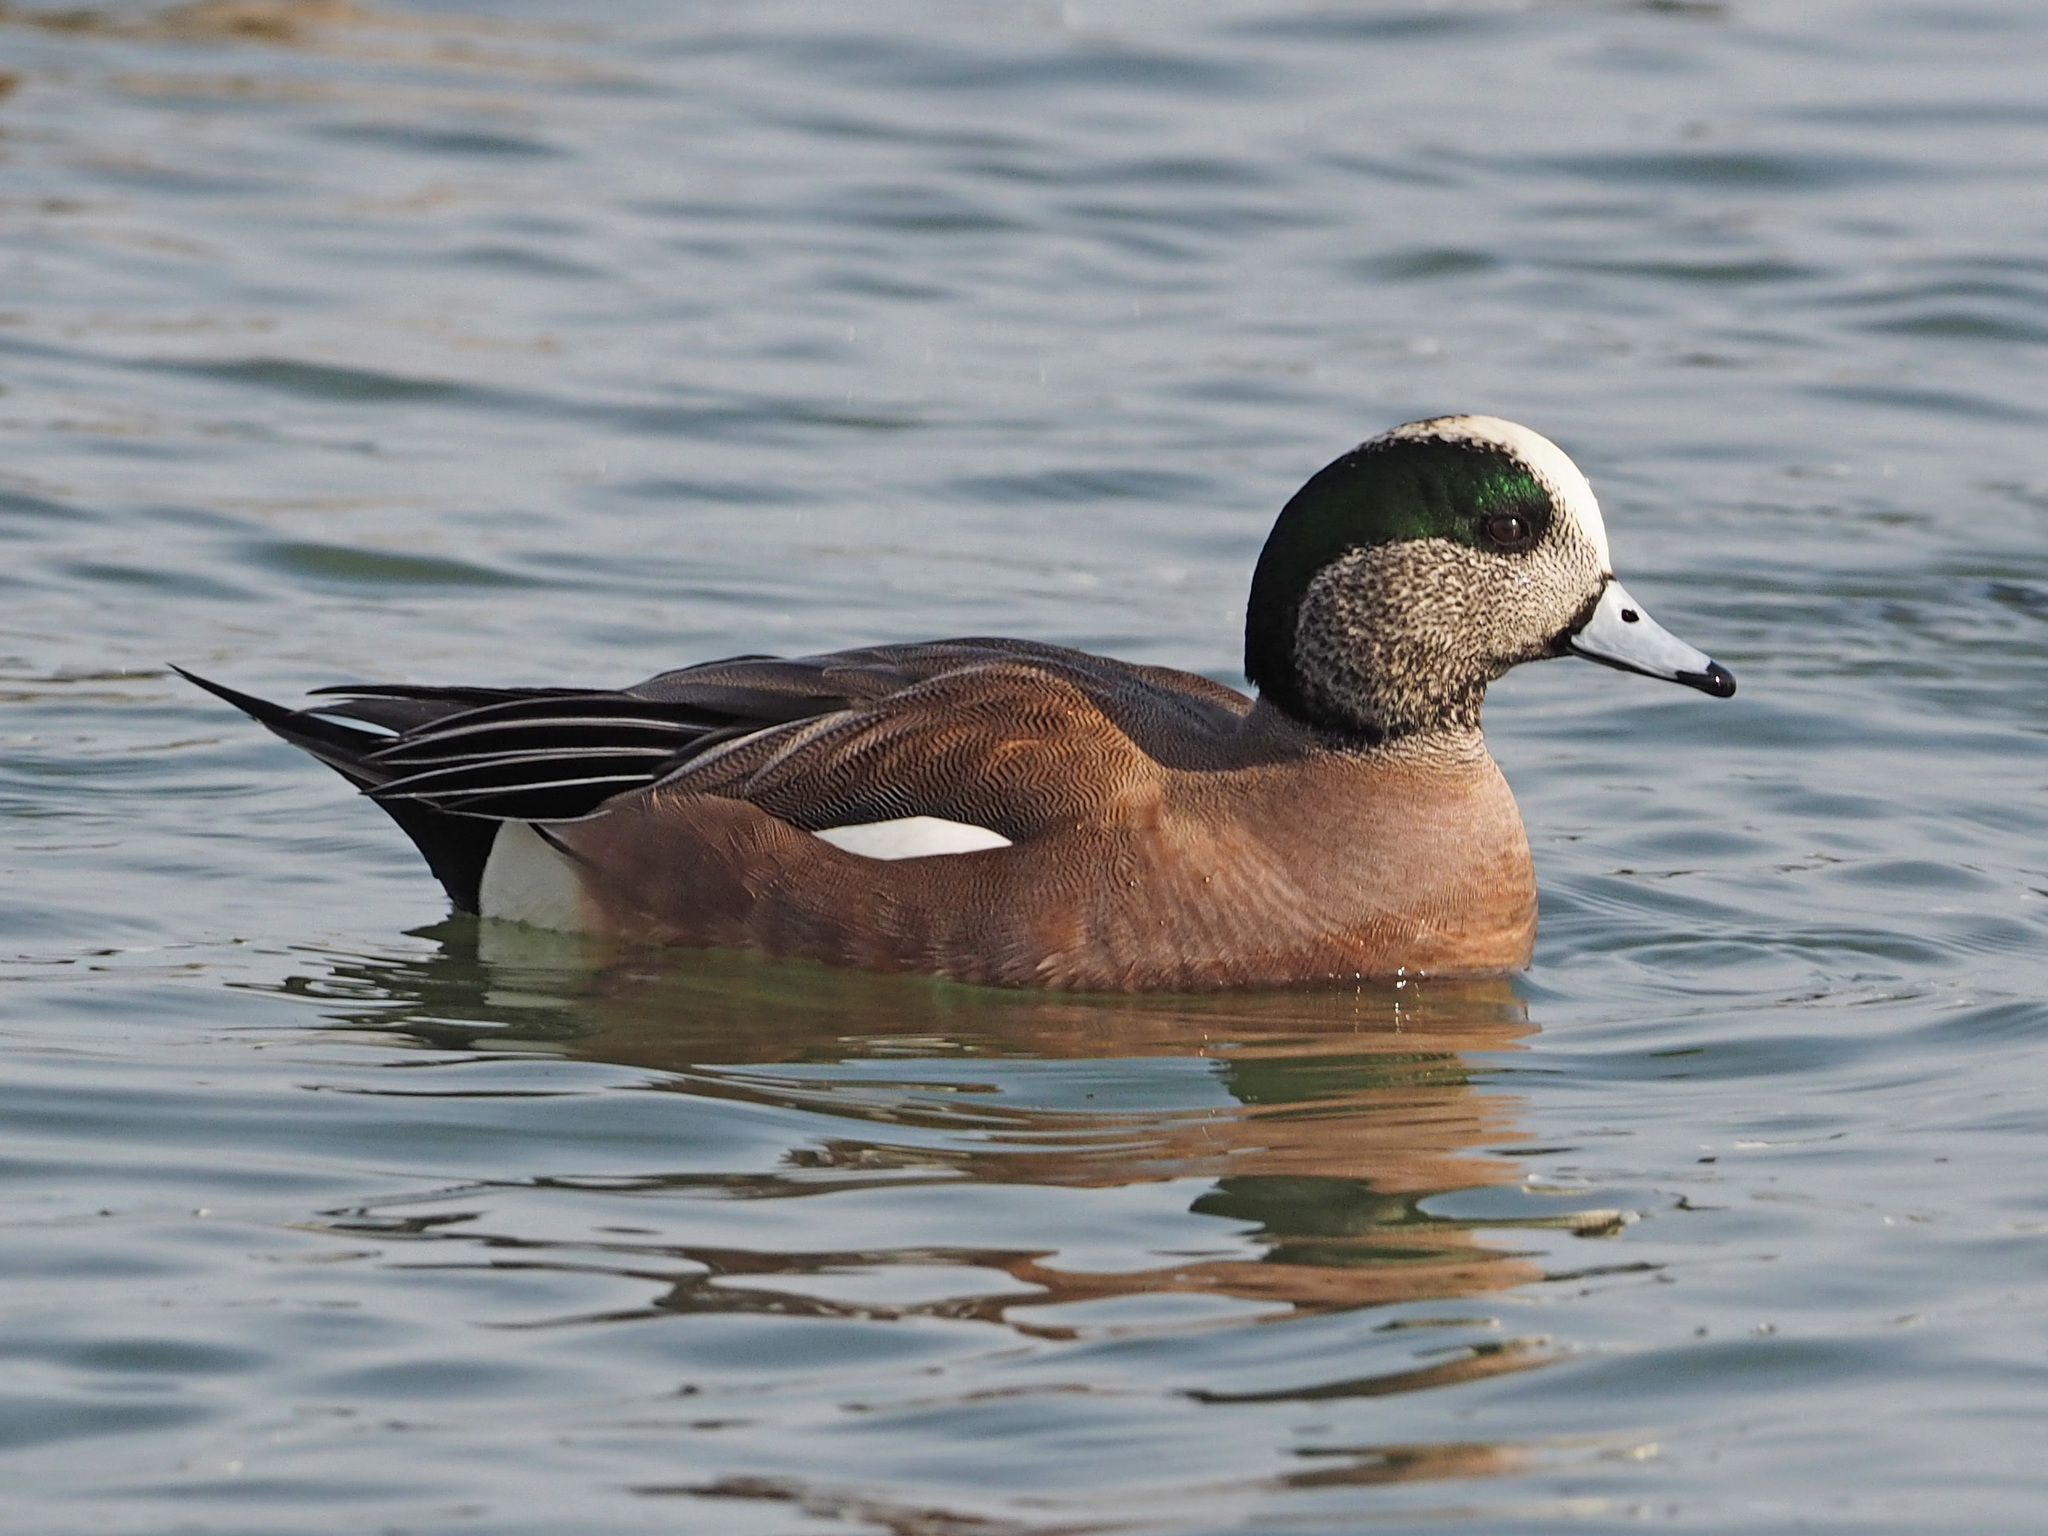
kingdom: Animalia
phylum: Chordata
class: Aves
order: Anseriformes
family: Anatidae
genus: Mareca
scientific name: Mareca americana
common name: American wigeon
